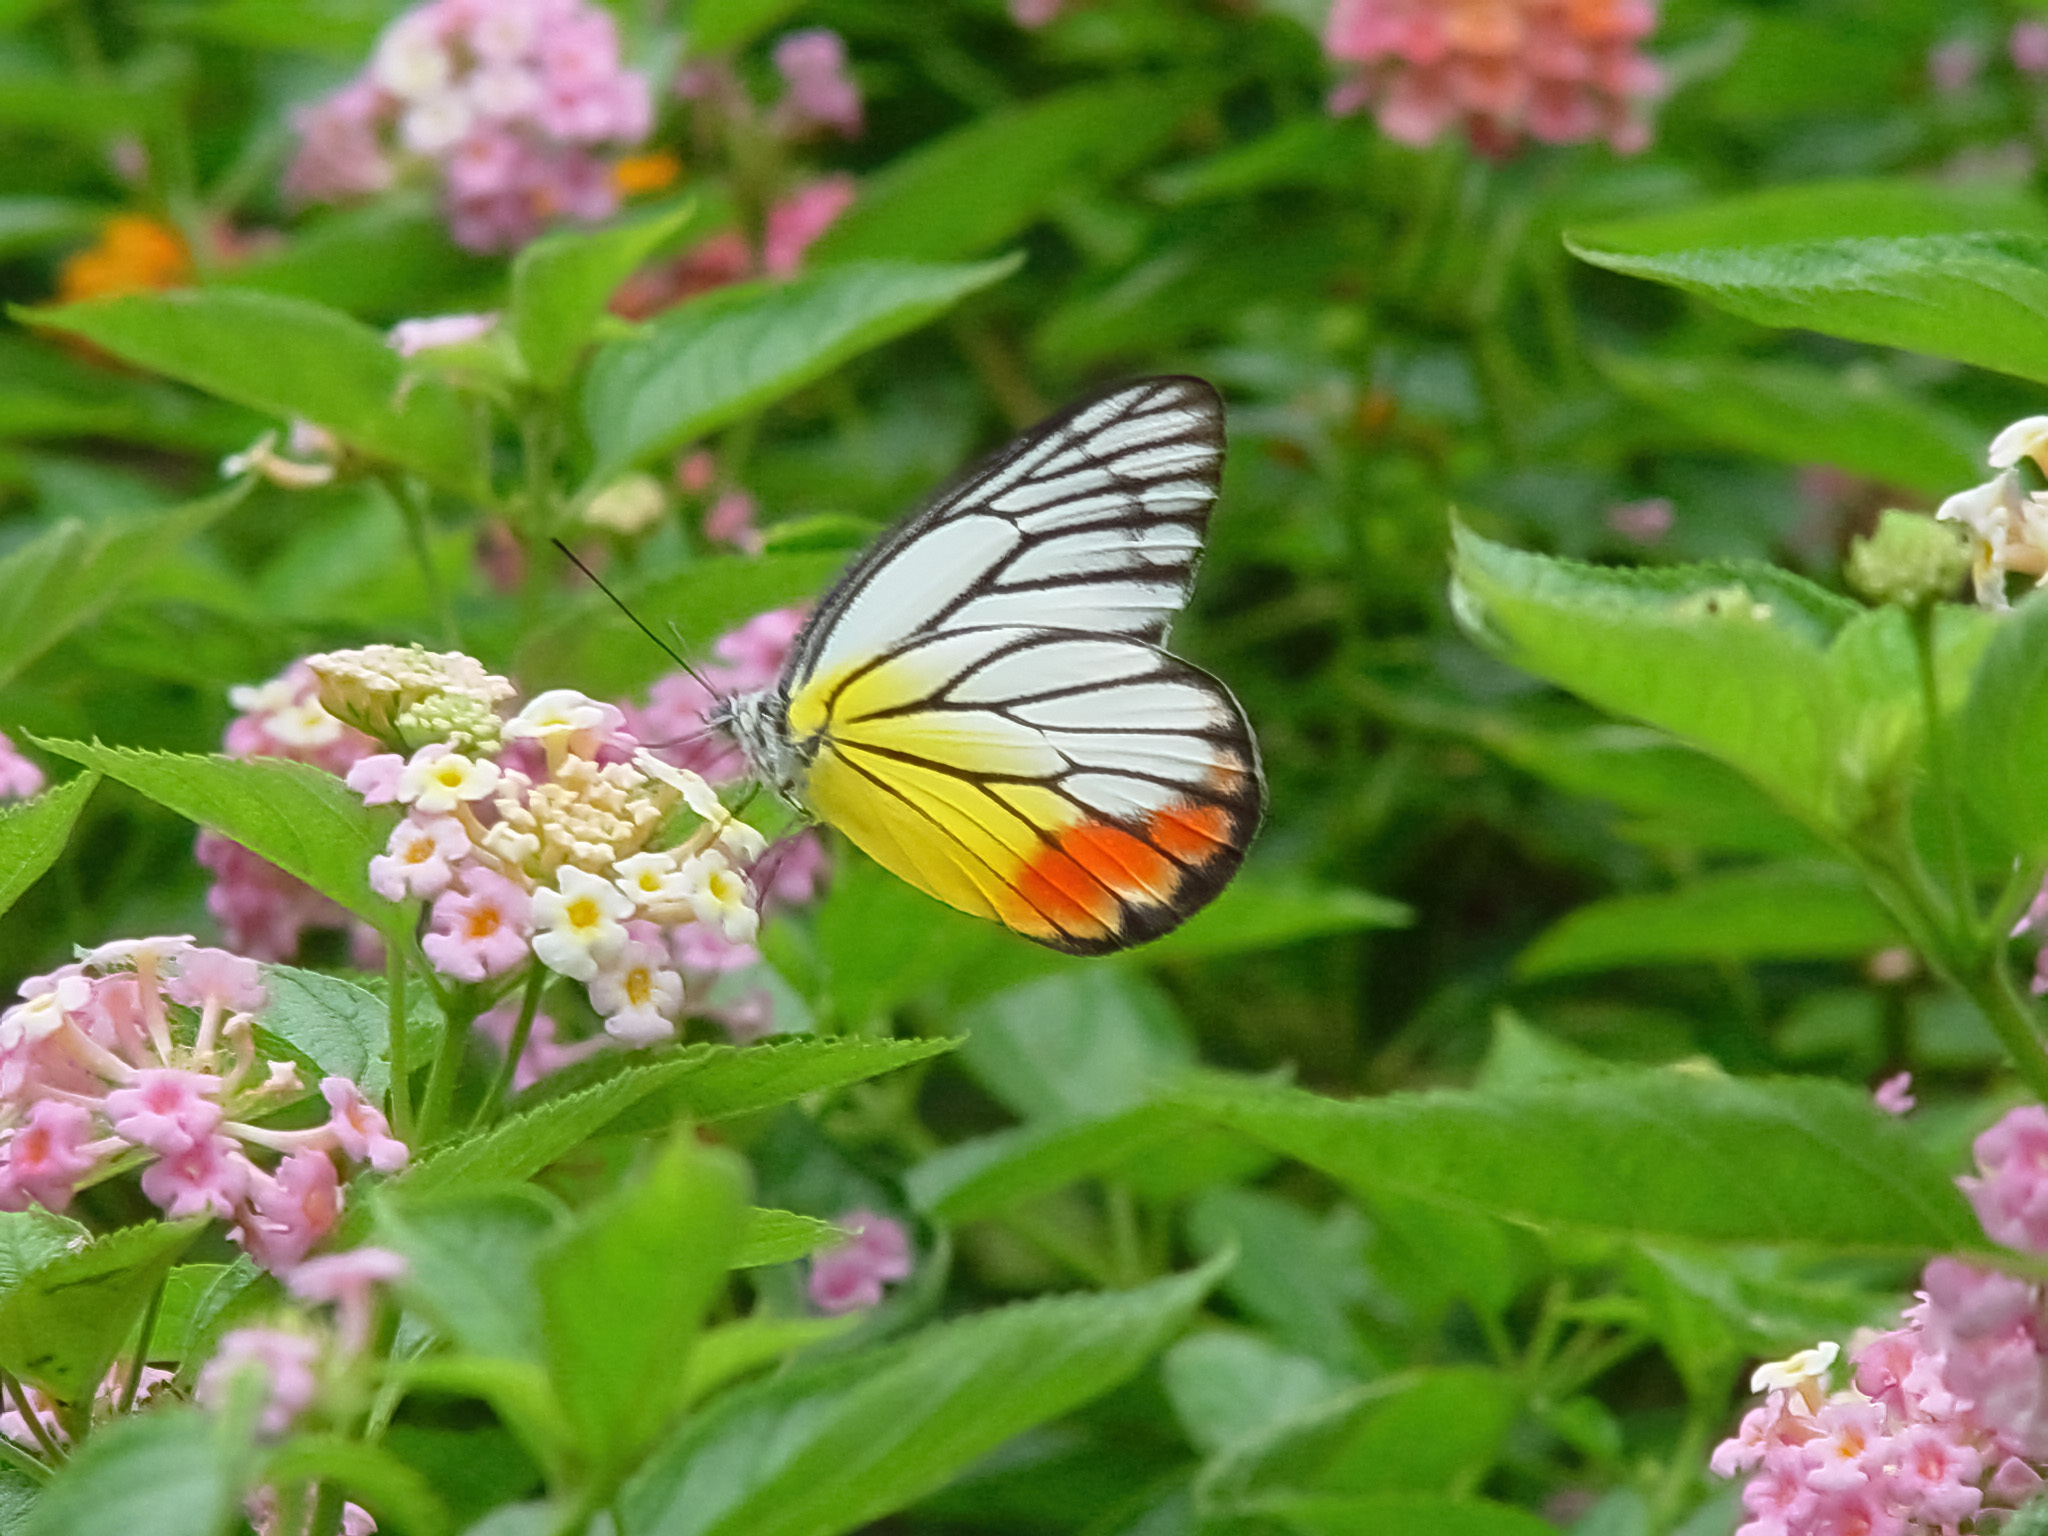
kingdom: Animalia
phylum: Arthropoda
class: Insecta
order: Lepidoptera
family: Pieridae
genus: Delias
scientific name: Delias hyparete
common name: Painted jezebel
